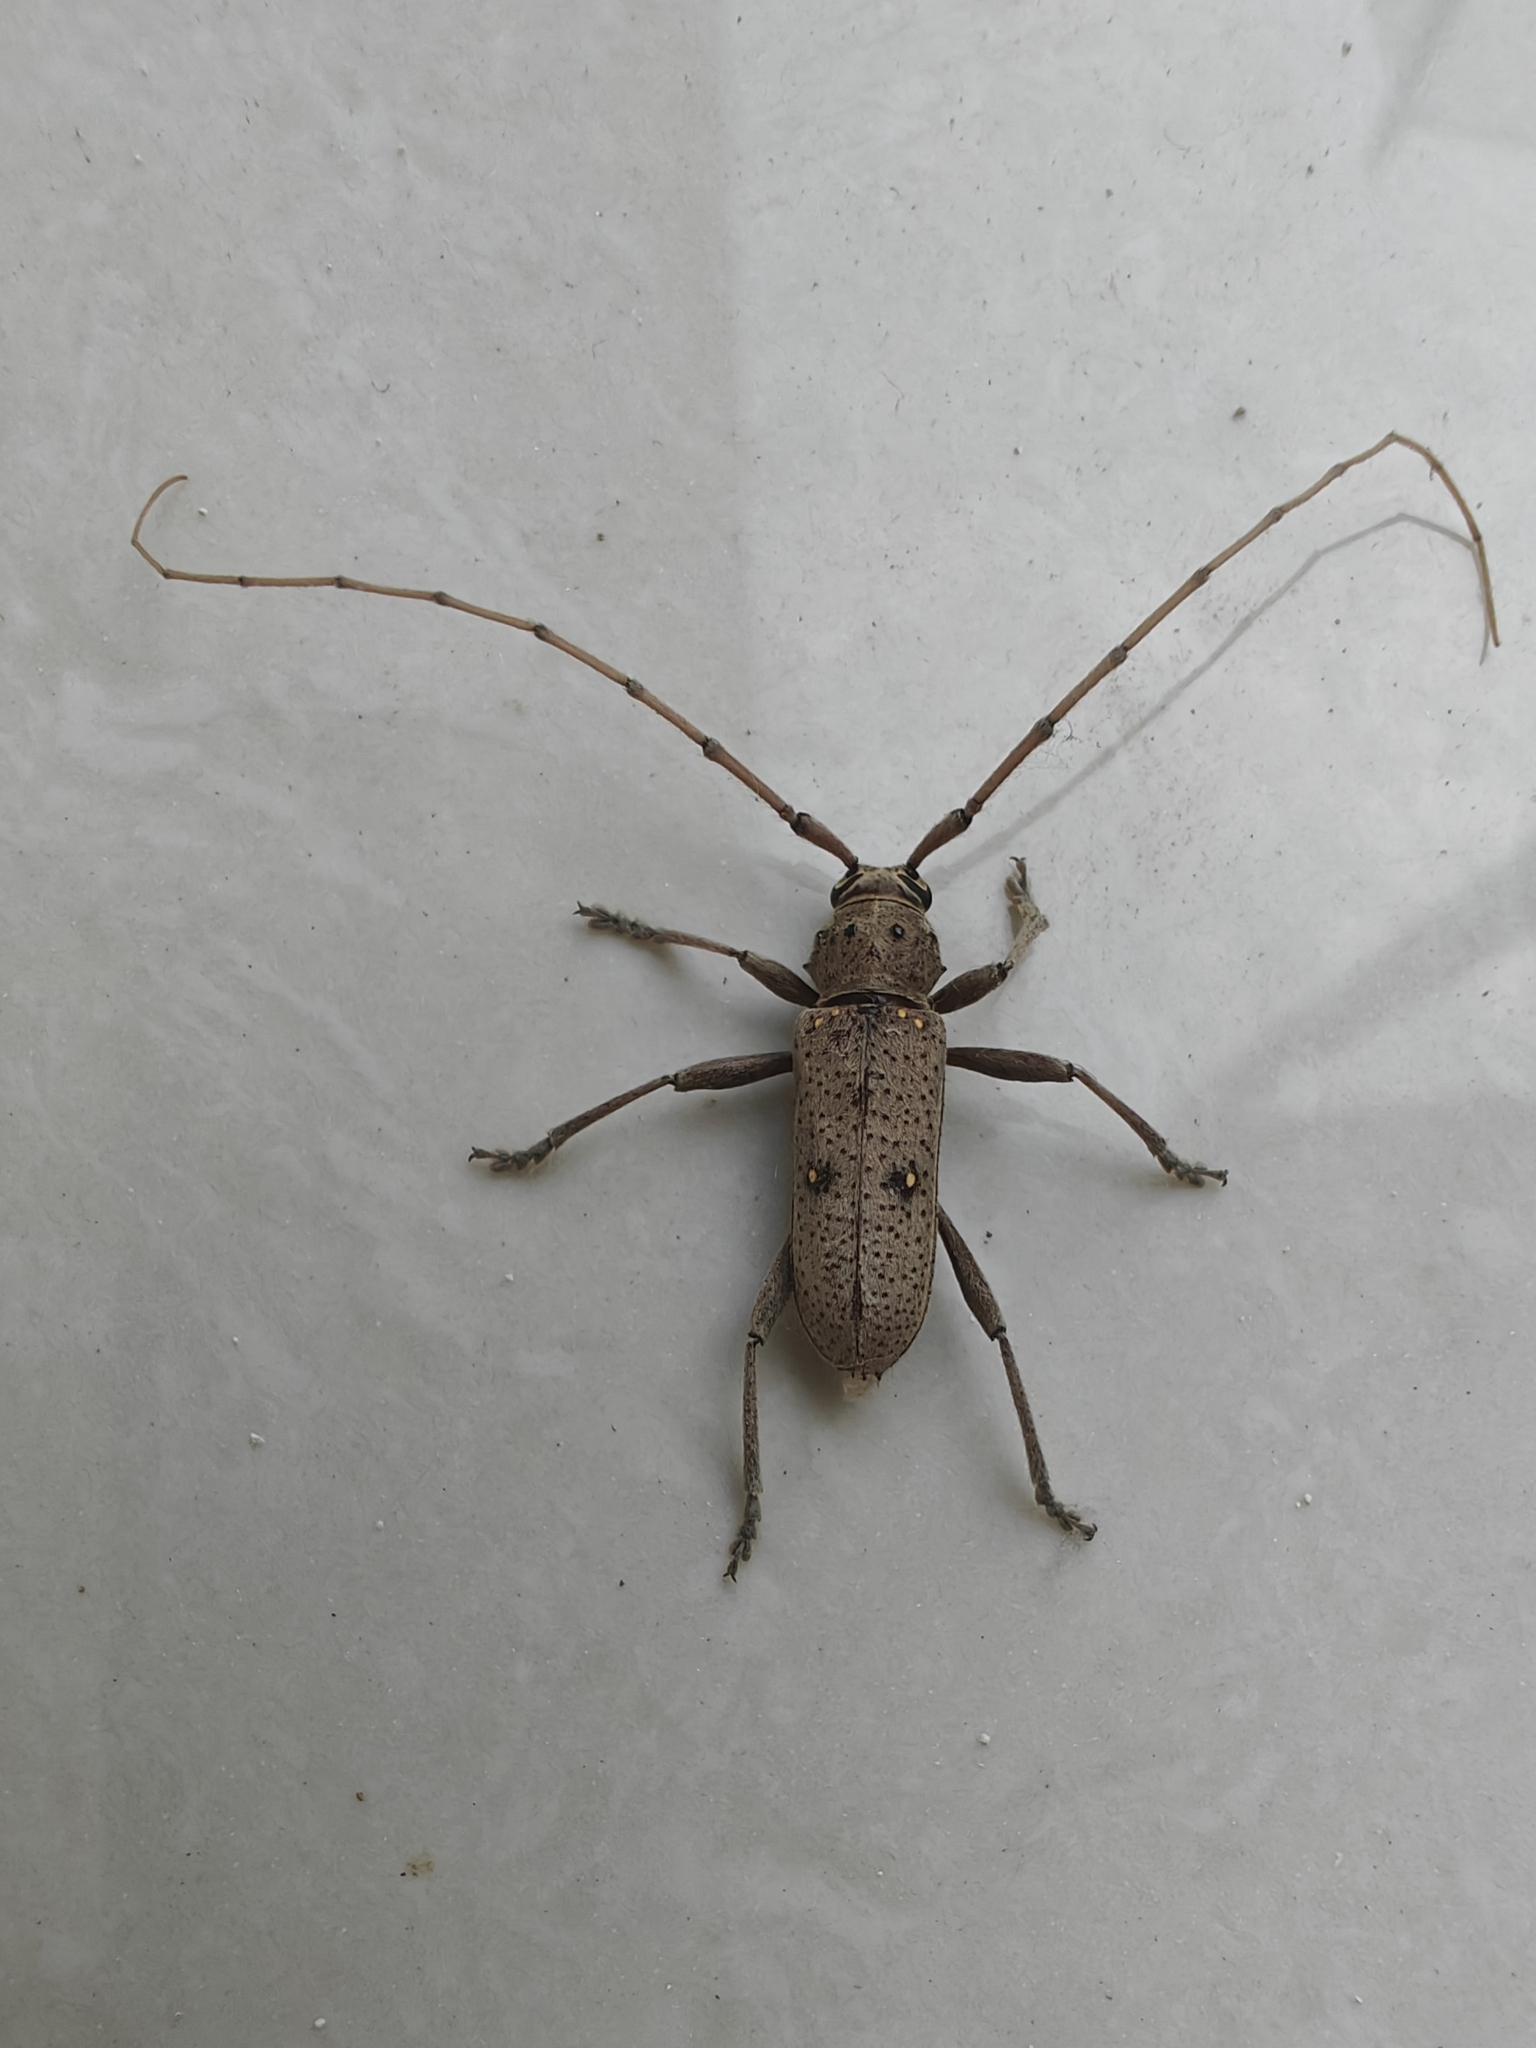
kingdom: Animalia
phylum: Arthropoda
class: Insecta
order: Coleoptera
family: Cerambycidae
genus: Eburia
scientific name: Eburia porulosa
